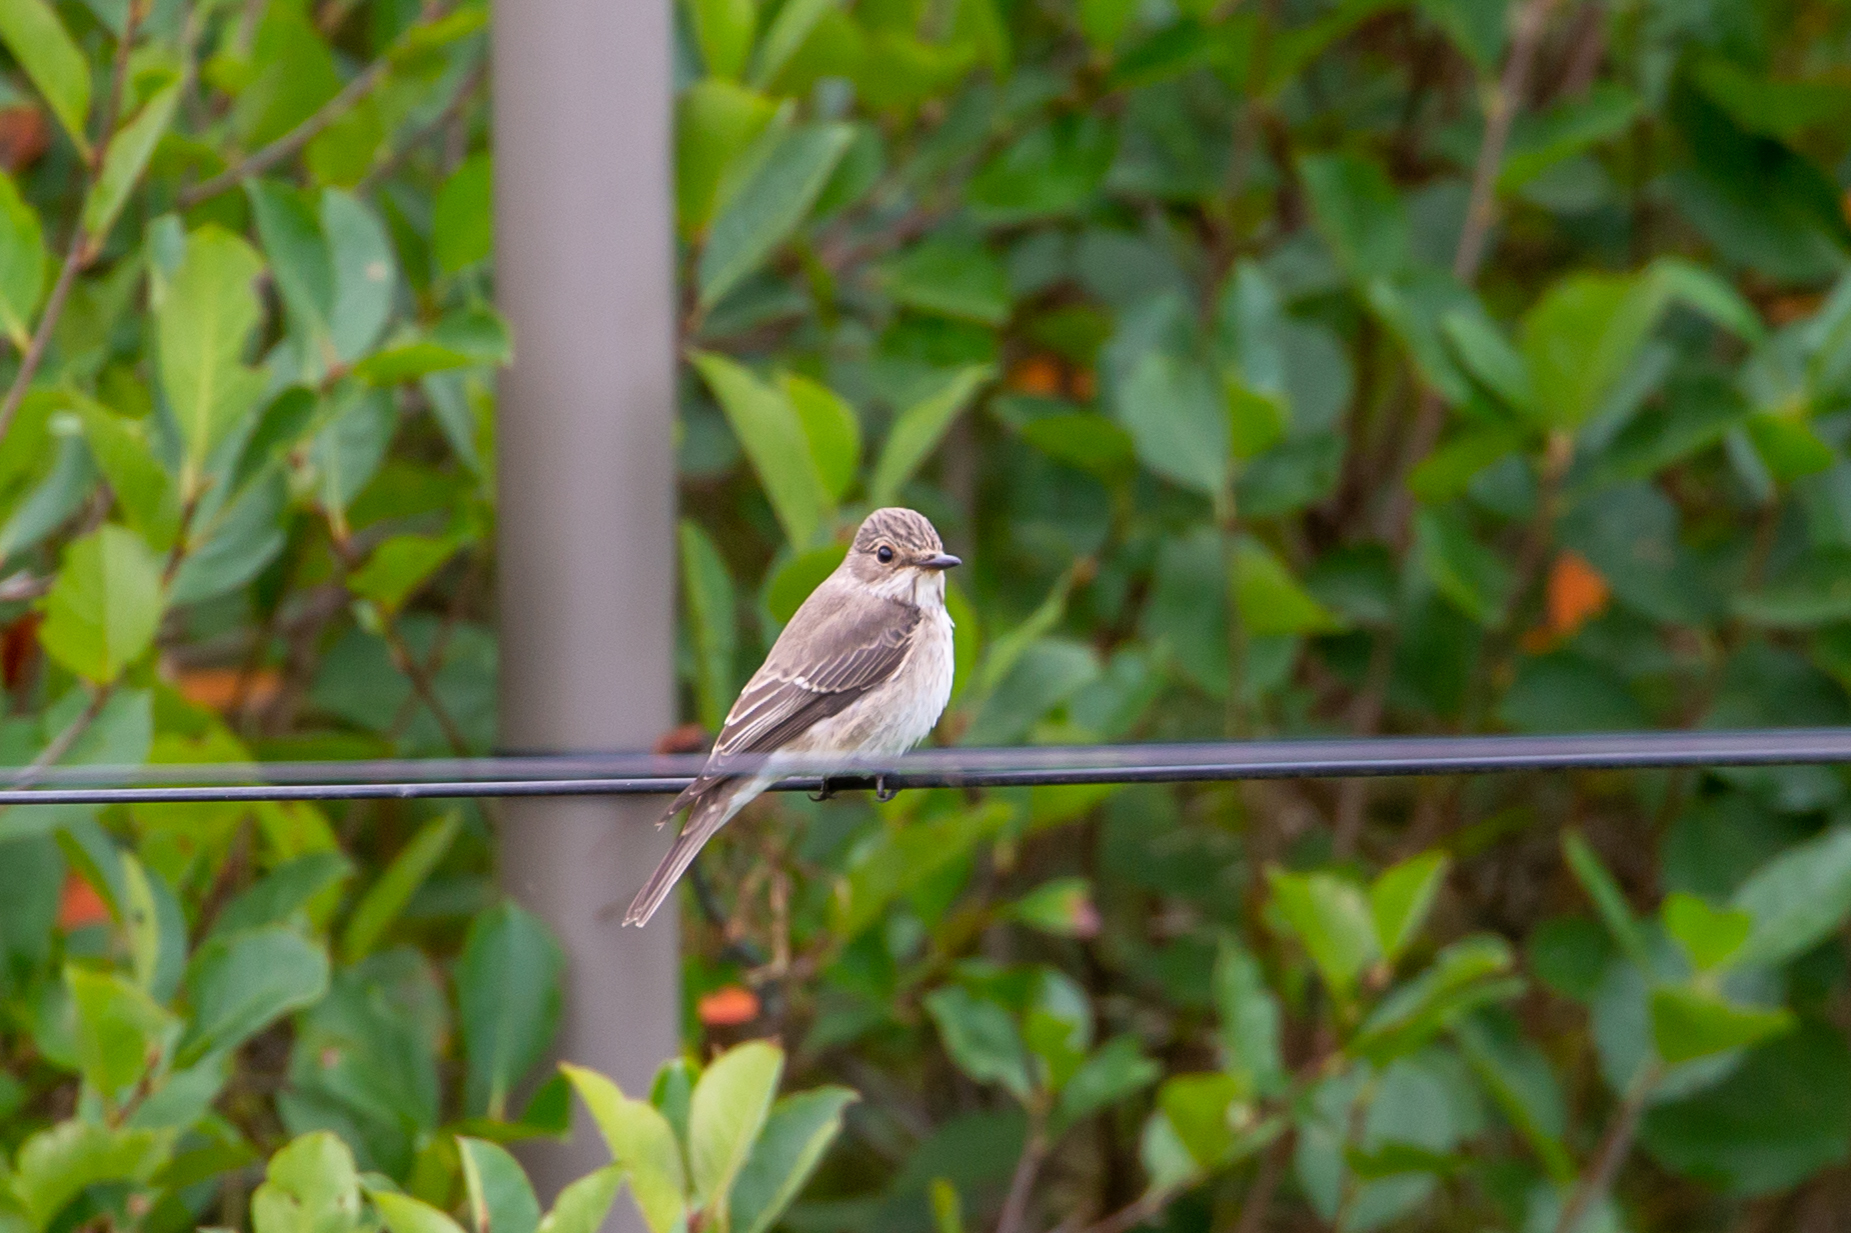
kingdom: Animalia
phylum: Chordata
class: Aves
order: Passeriformes
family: Muscicapidae
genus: Muscicapa
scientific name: Muscicapa striata
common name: Spotted flycatcher
